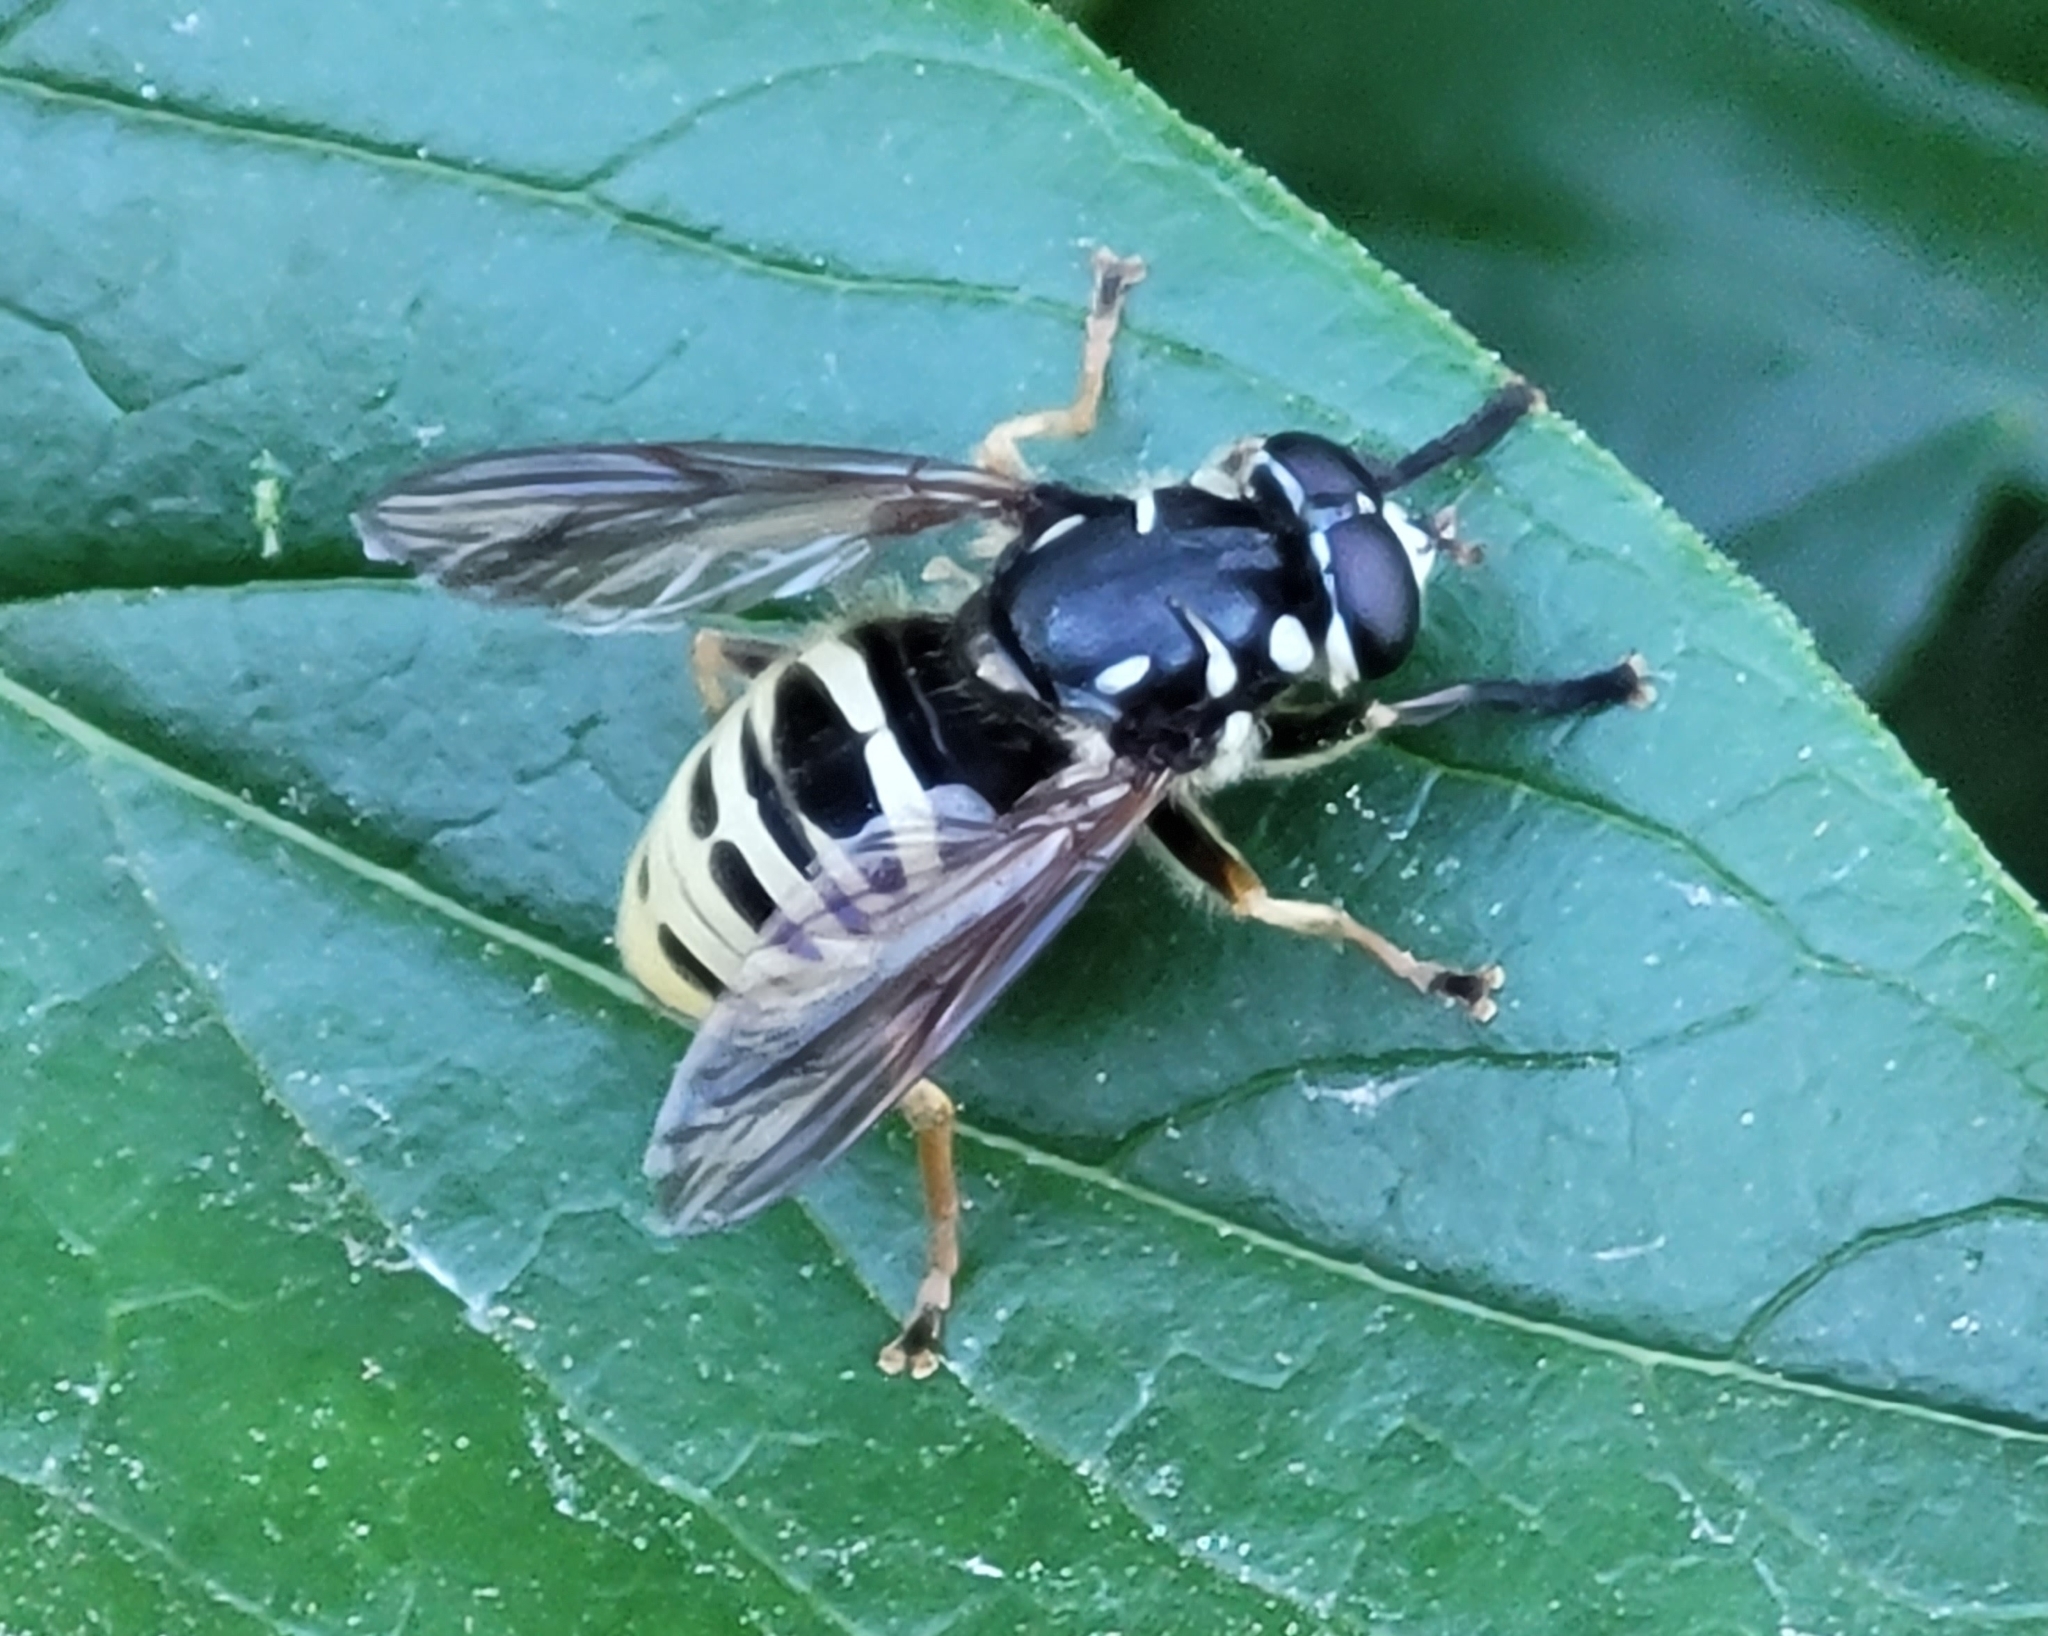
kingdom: Animalia
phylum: Arthropoda
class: Insecta
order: Diptera
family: Syrphidae
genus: Temnostoma
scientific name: Temnostoma excentricum
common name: Black-spotted falsehorn
